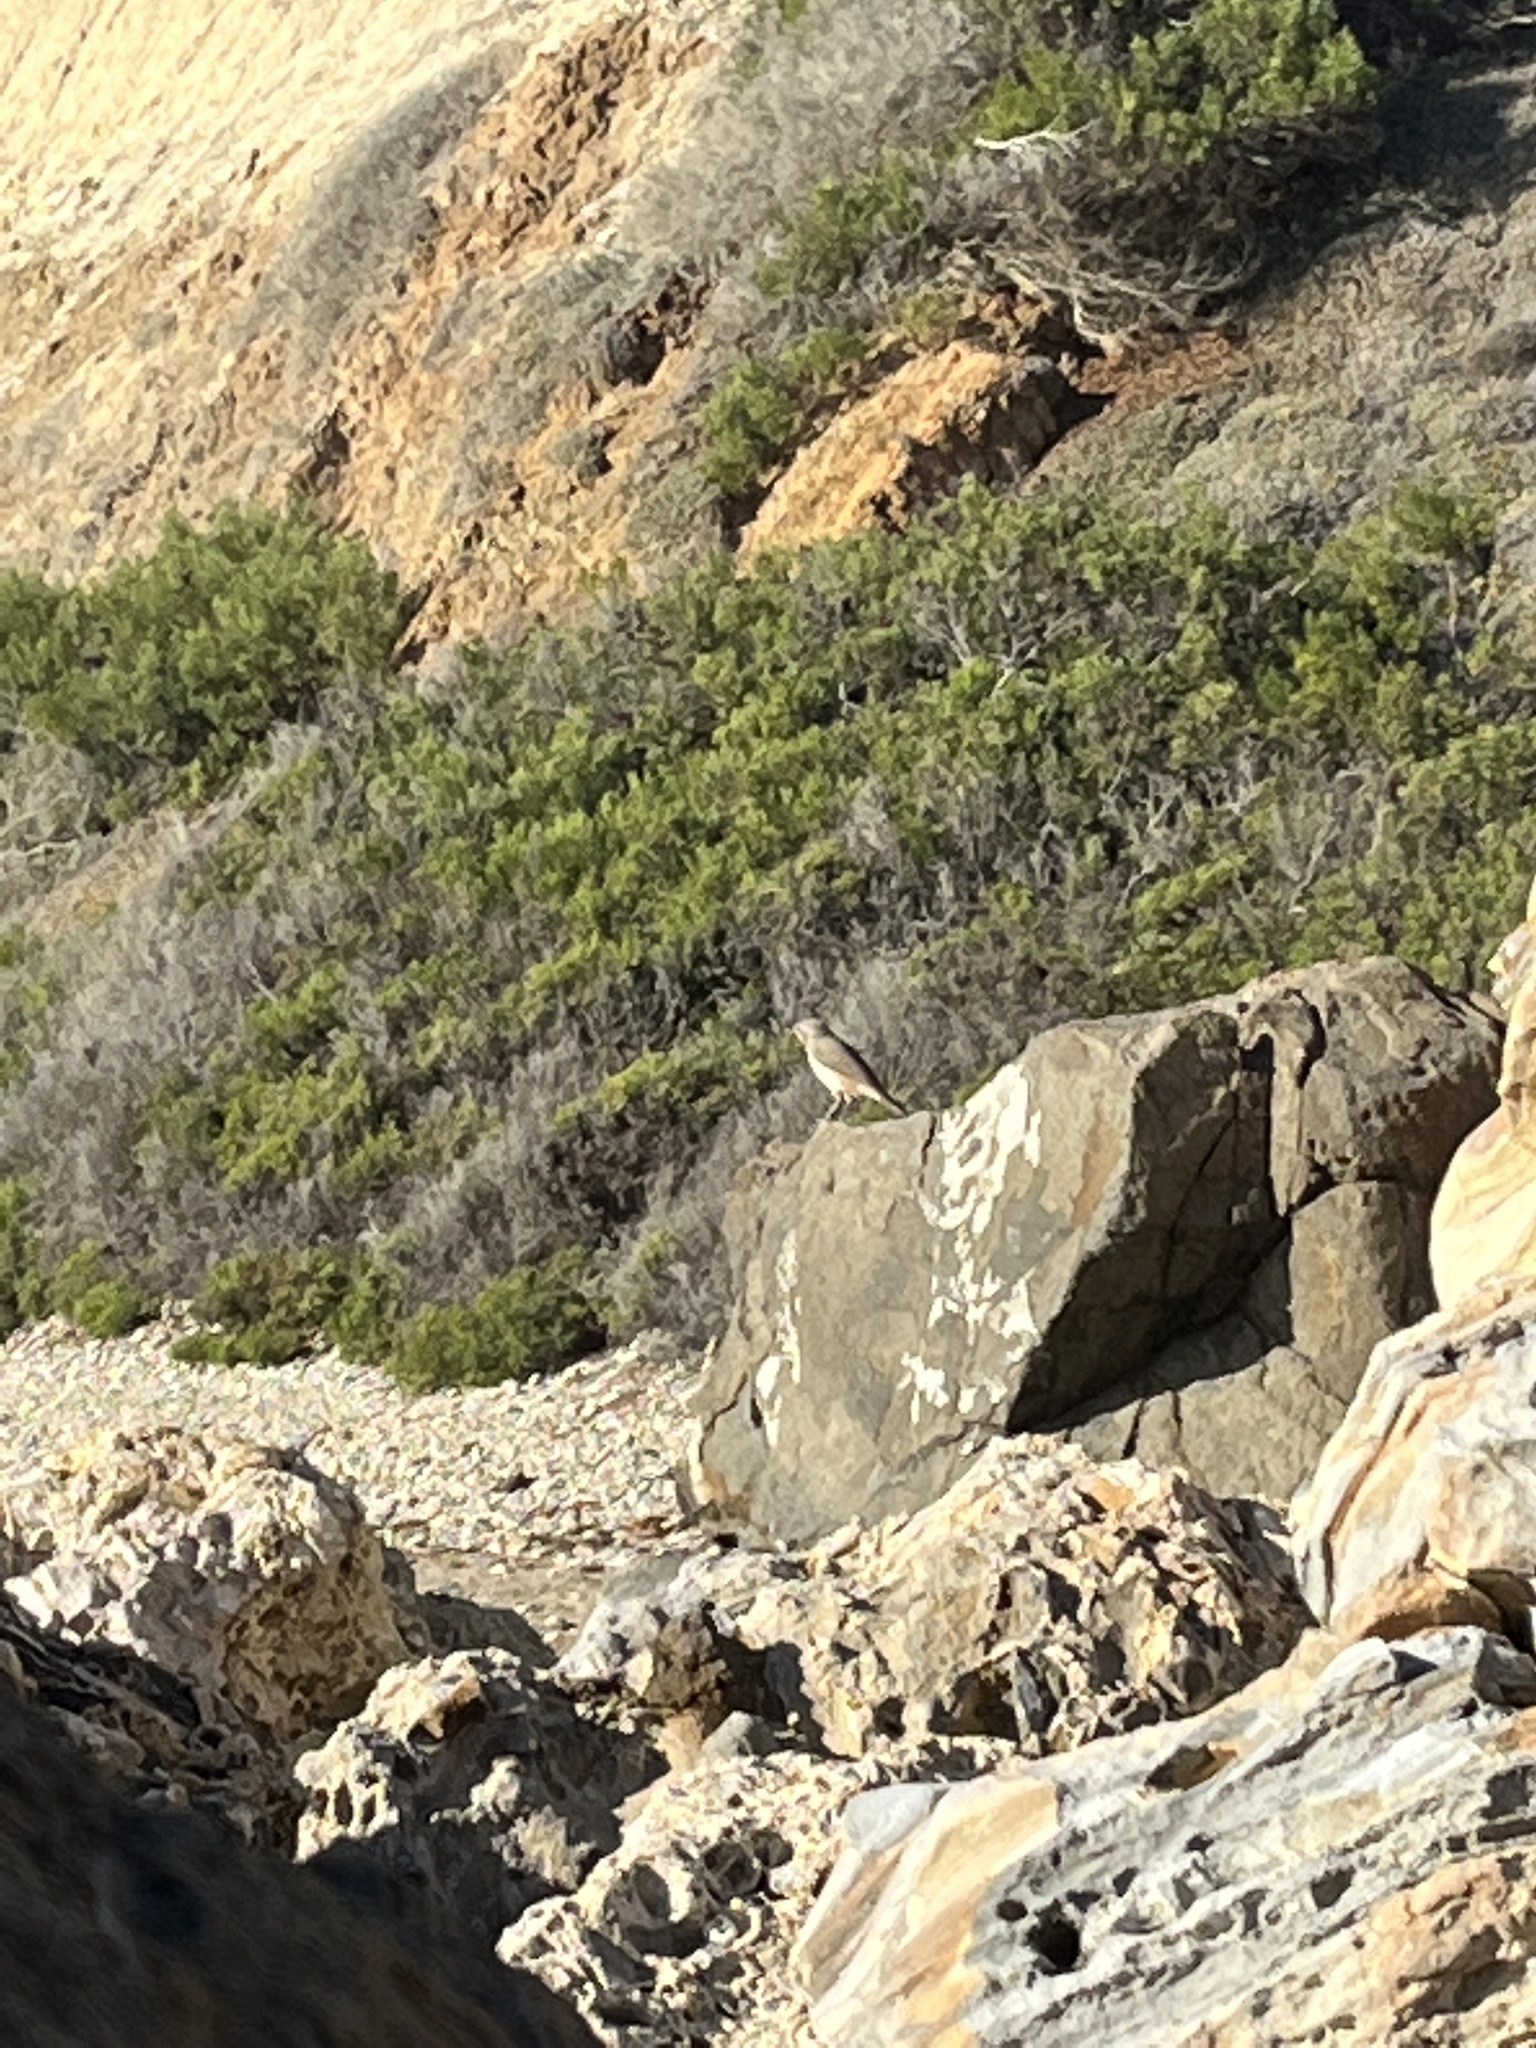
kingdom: Animalia
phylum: Chordata
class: Aves
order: Passeriformes
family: Troglodytidae
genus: Salpinctes
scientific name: Salpinctes obsoletus
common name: Rock wren
